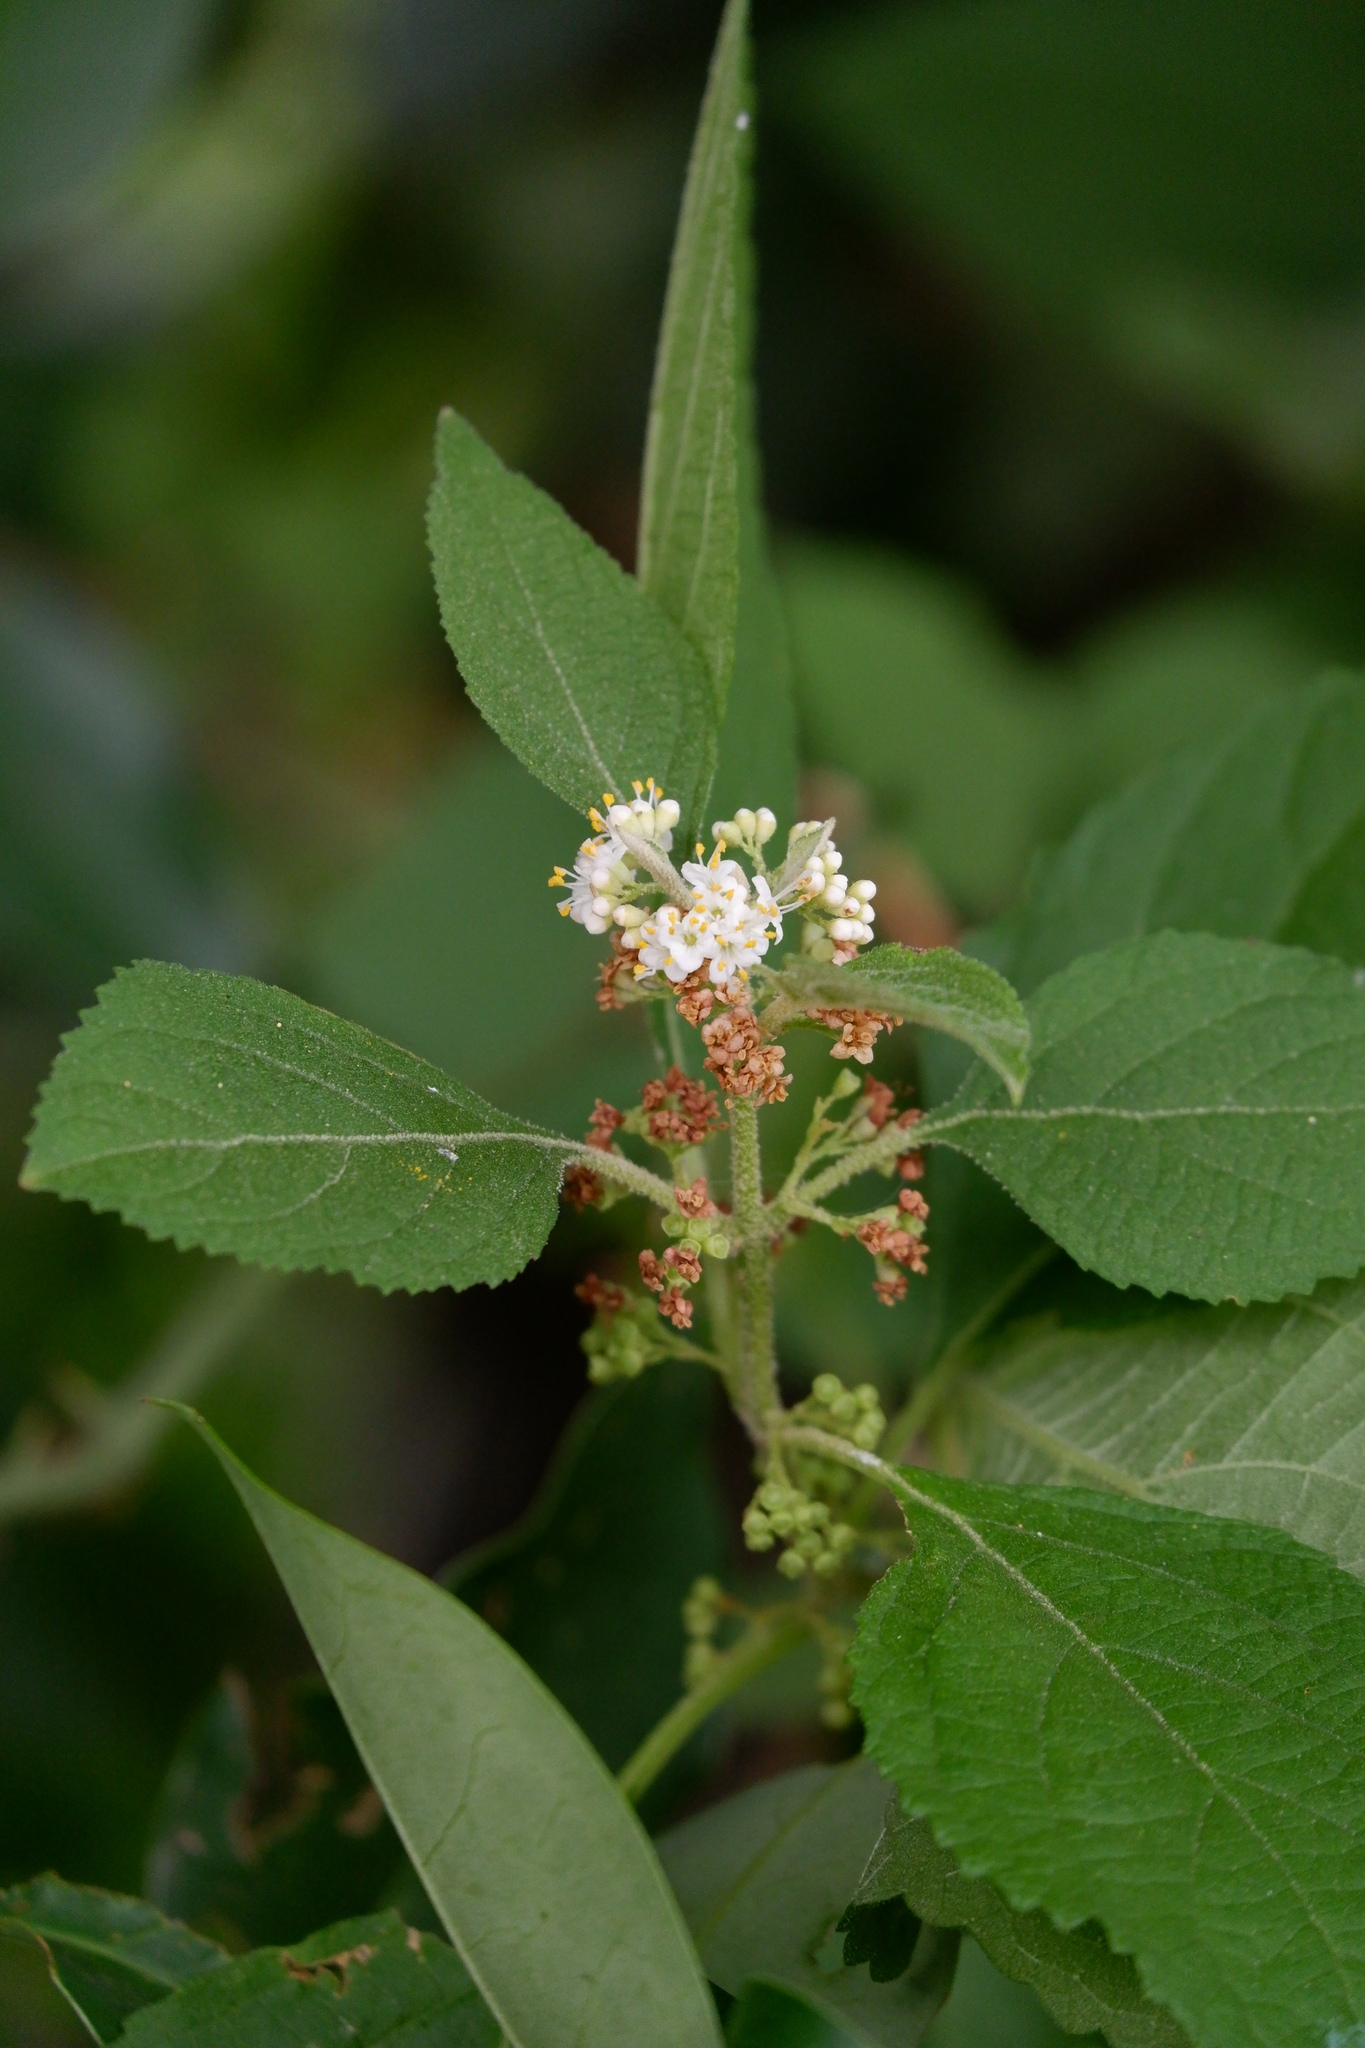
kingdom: Plantae
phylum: Tracheophyta
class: Magnoliopsida
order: Lamiales
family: Lamiaceae
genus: Callicarpa
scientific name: Callicarpa americana
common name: American beautyberry
